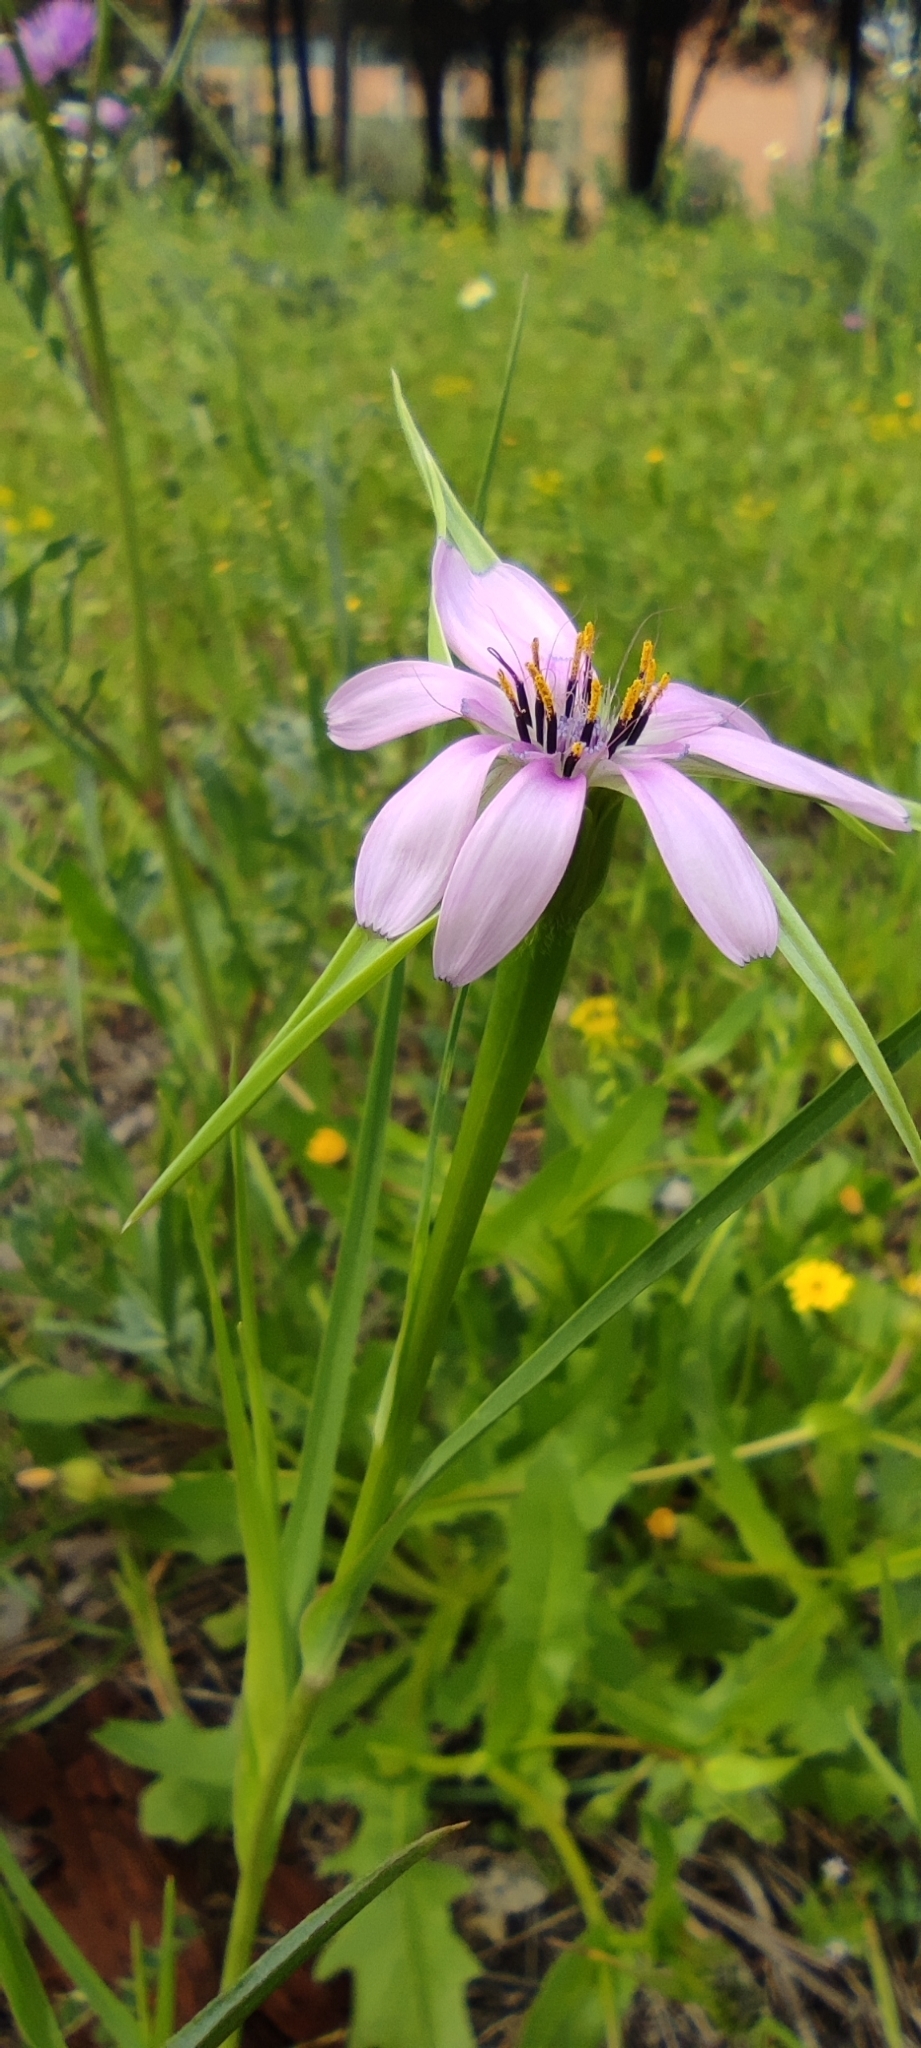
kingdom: Plantae
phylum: Tracheophyta
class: Magnoliopsida
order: Asterales
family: Asteraceae
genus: Geropogon
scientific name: Geropogon hybridus
